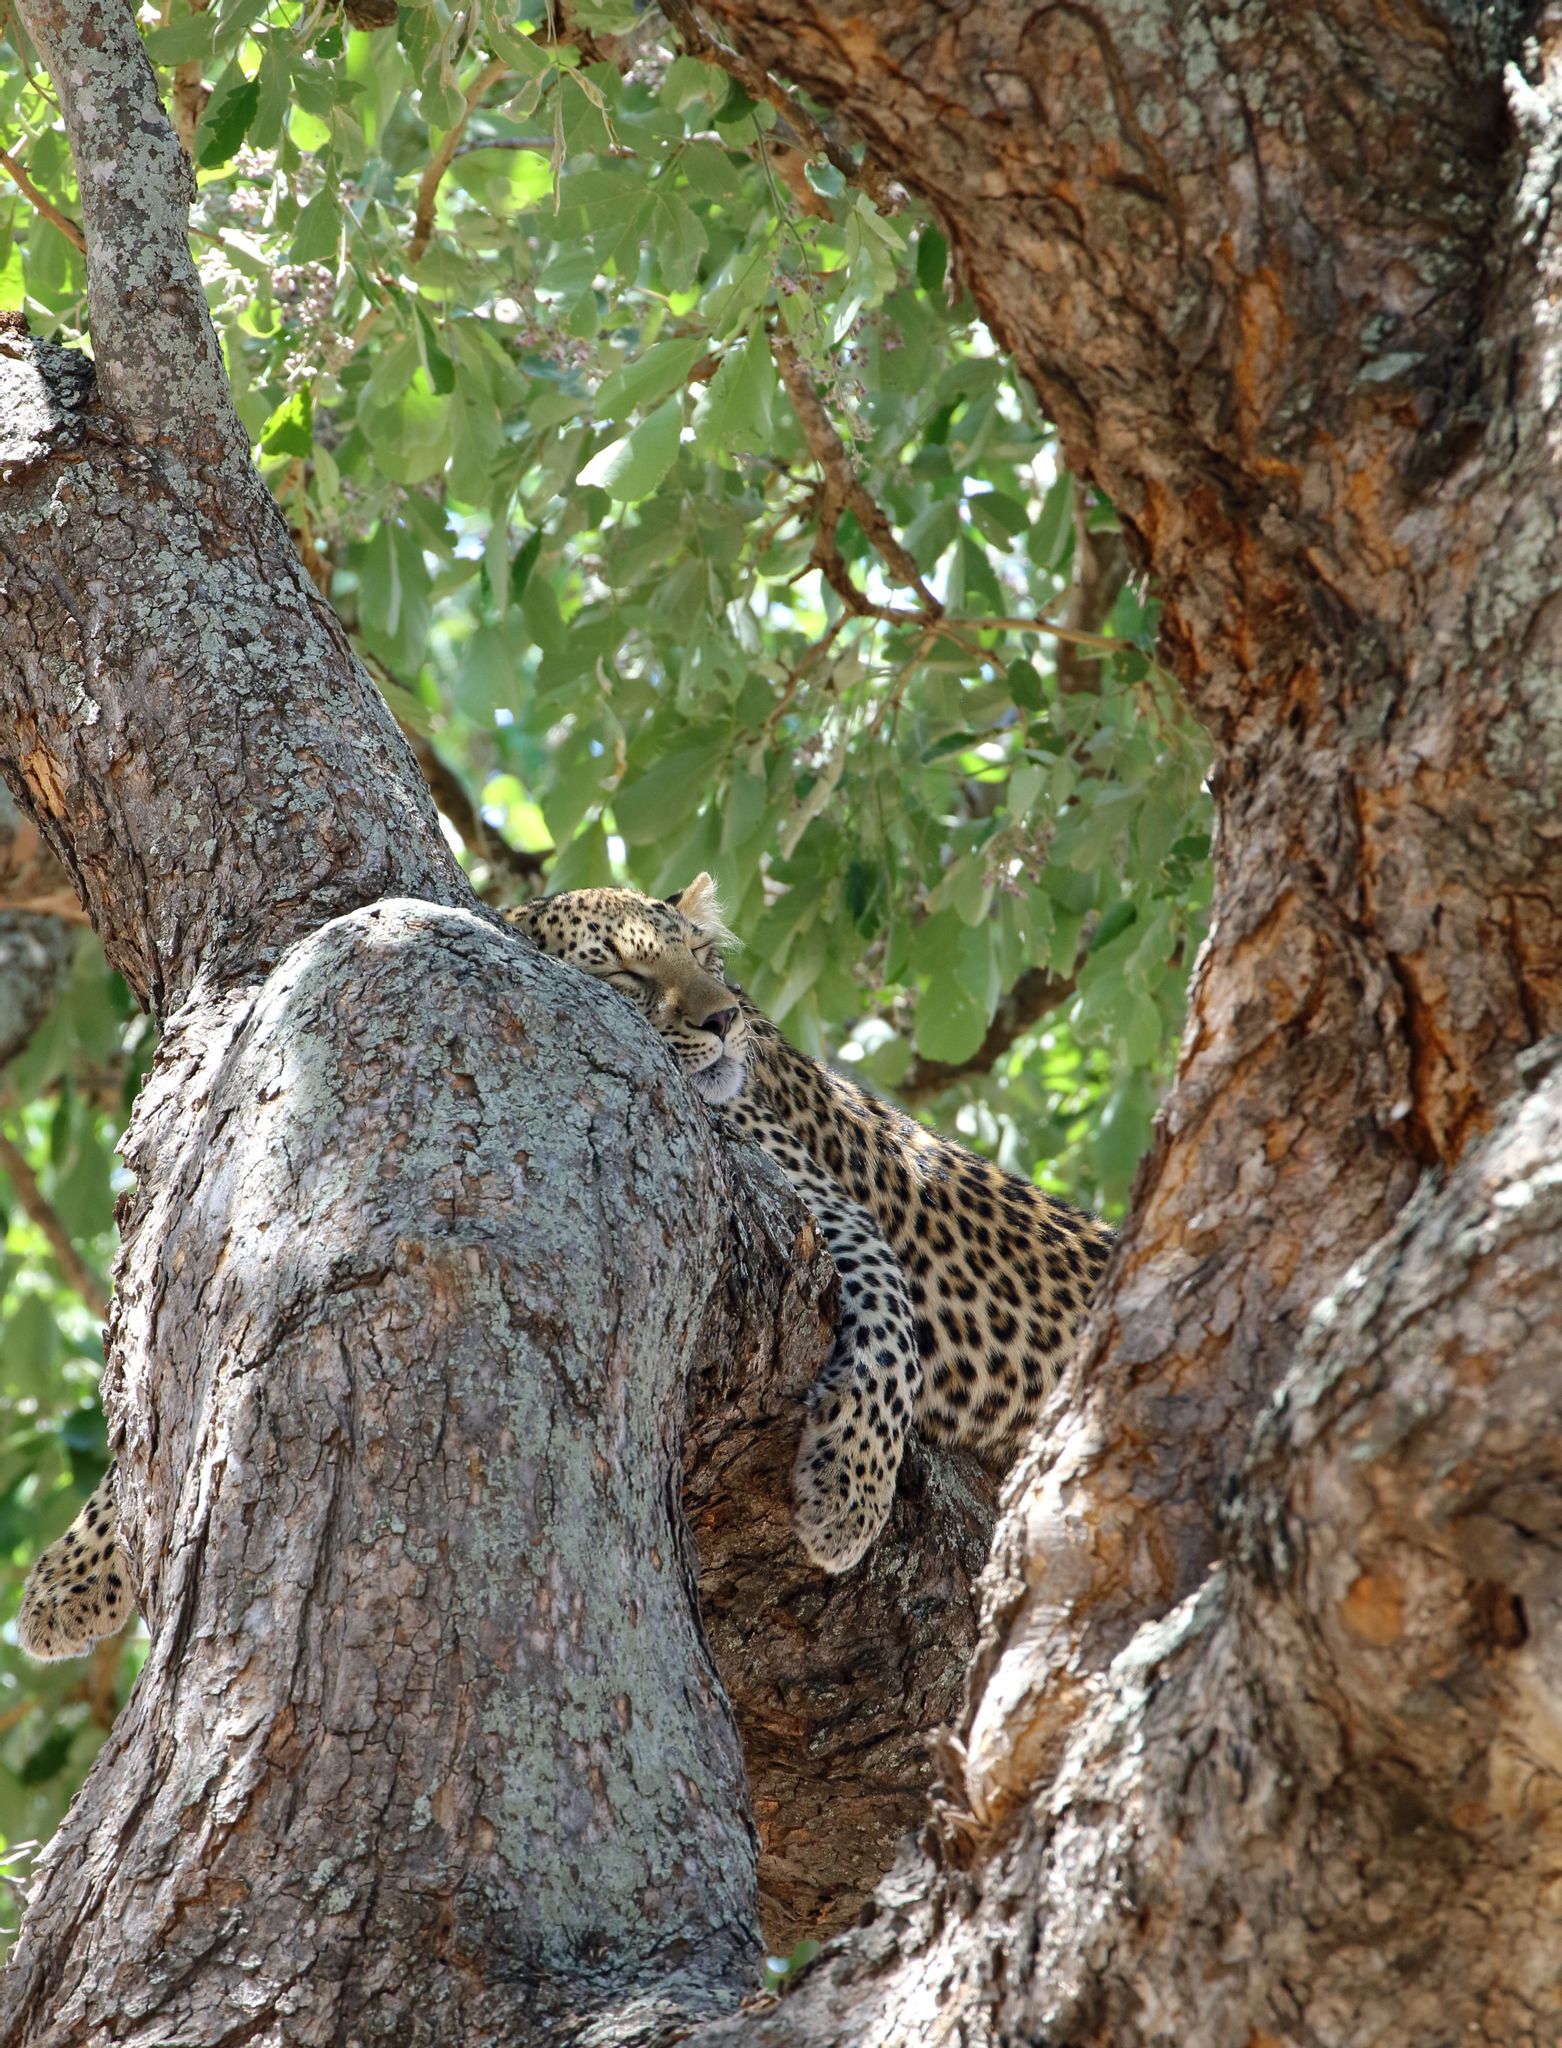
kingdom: Plantae
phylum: Tracheophyta
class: Magnoliopsida
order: Fabales
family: Fabaceae
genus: Philenoptera
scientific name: Philenoptera violacea
